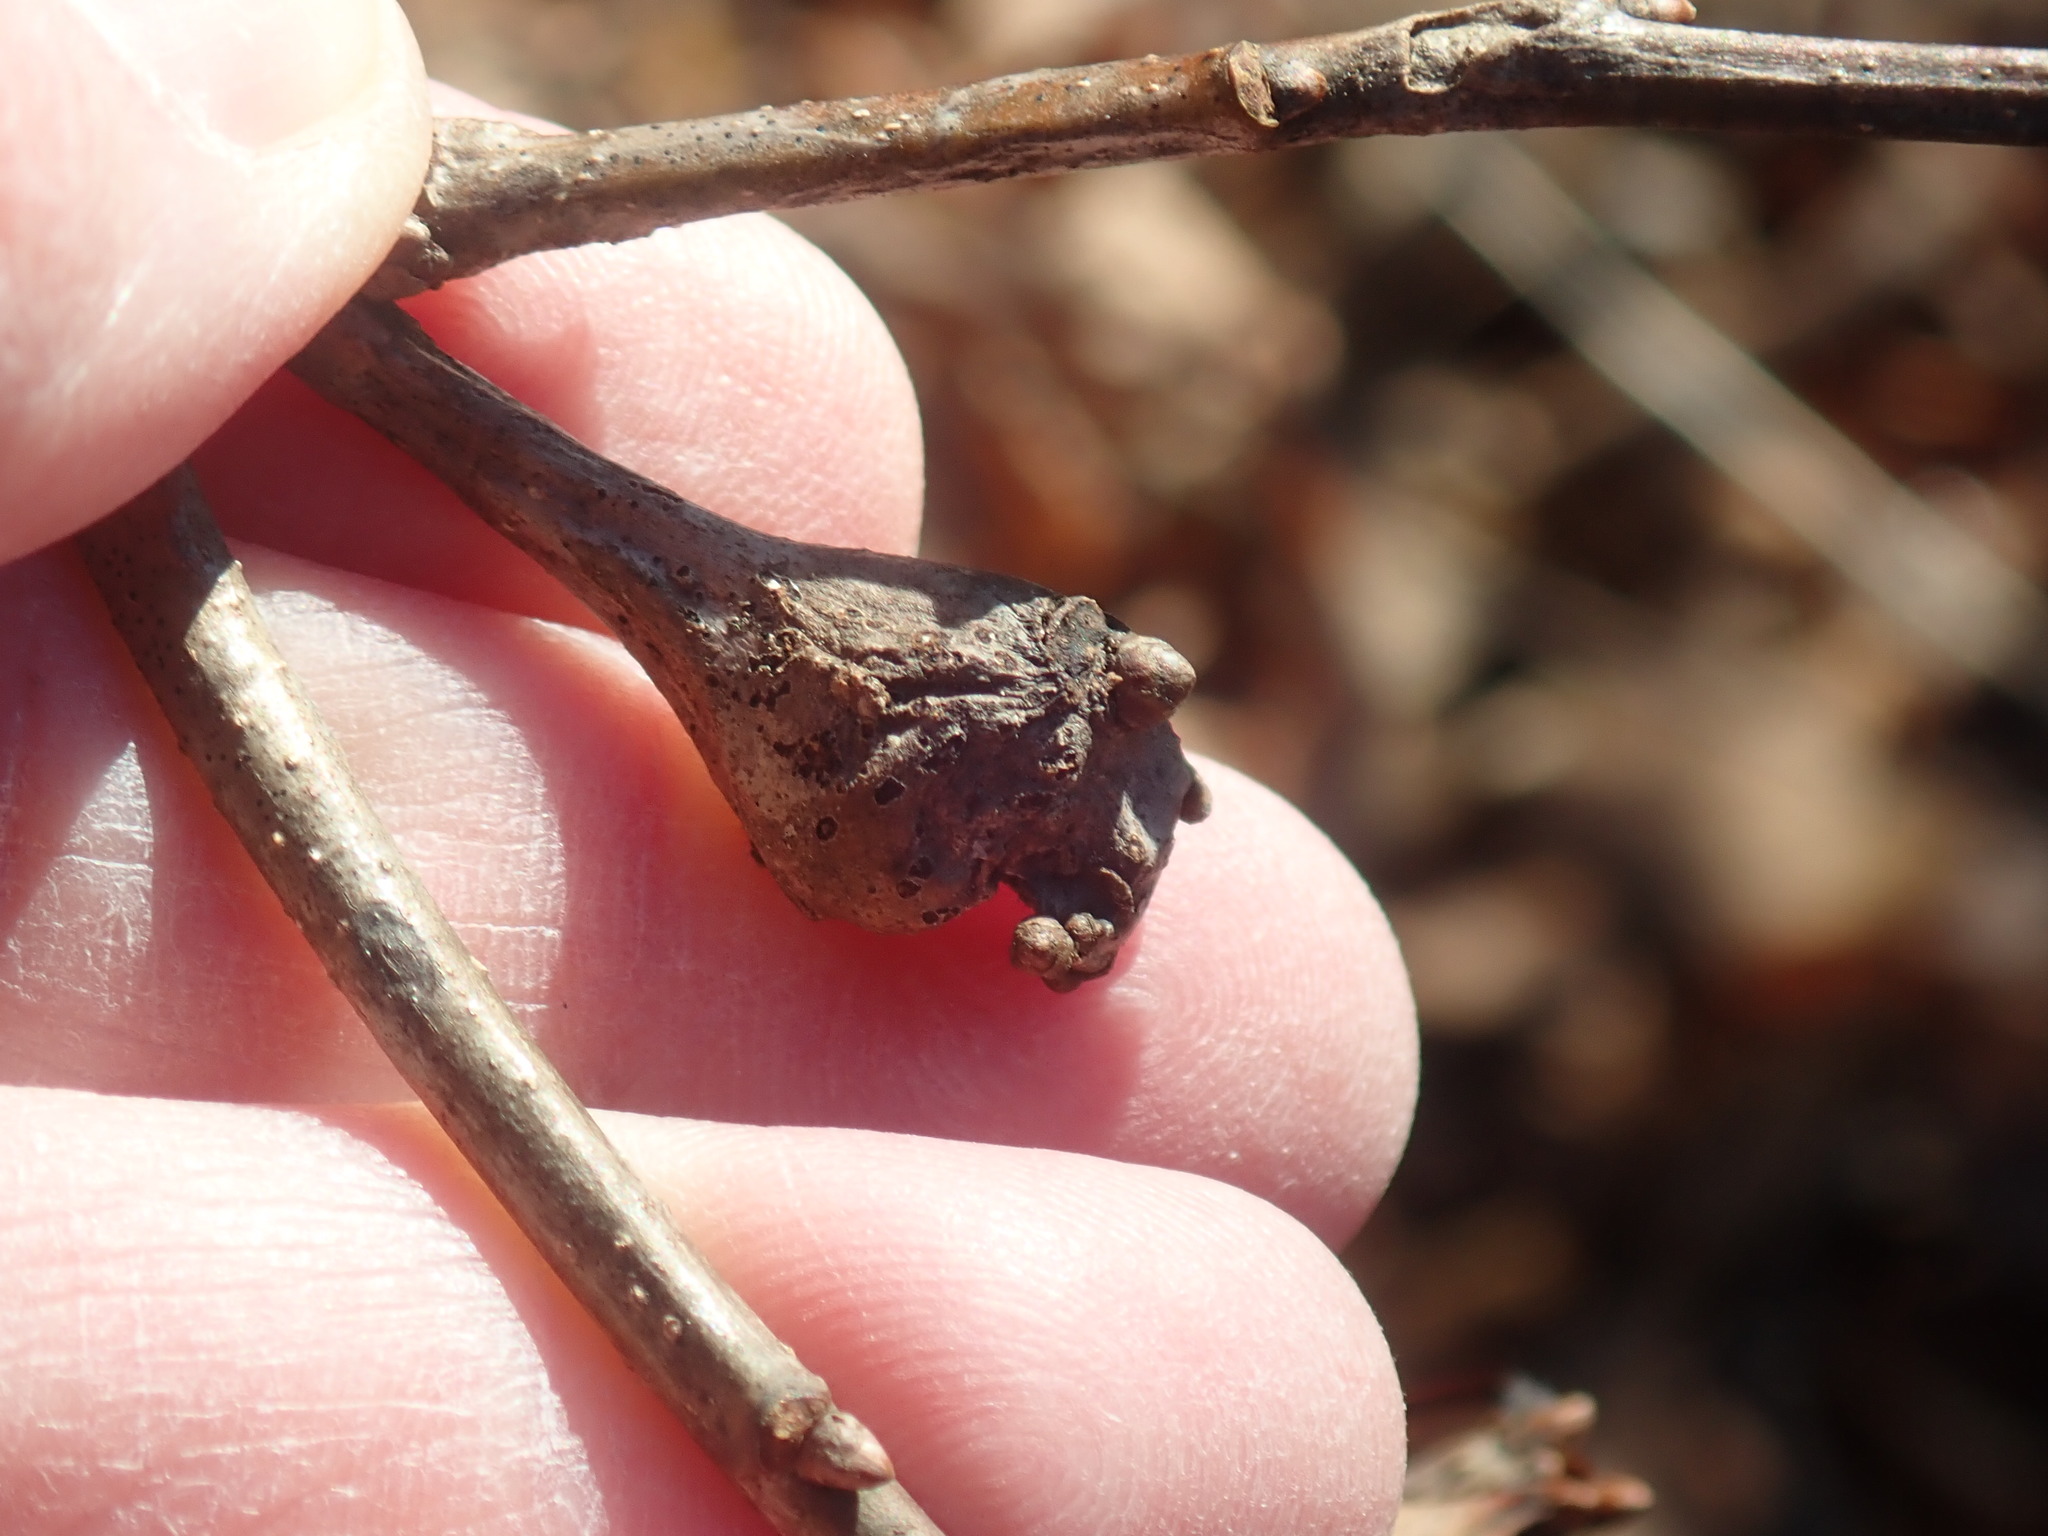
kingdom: Animalia
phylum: Arthropoda
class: Insecta
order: Hymenoptera
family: Cynipidae
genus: Callirhytis
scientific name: Callirhytis clavula
